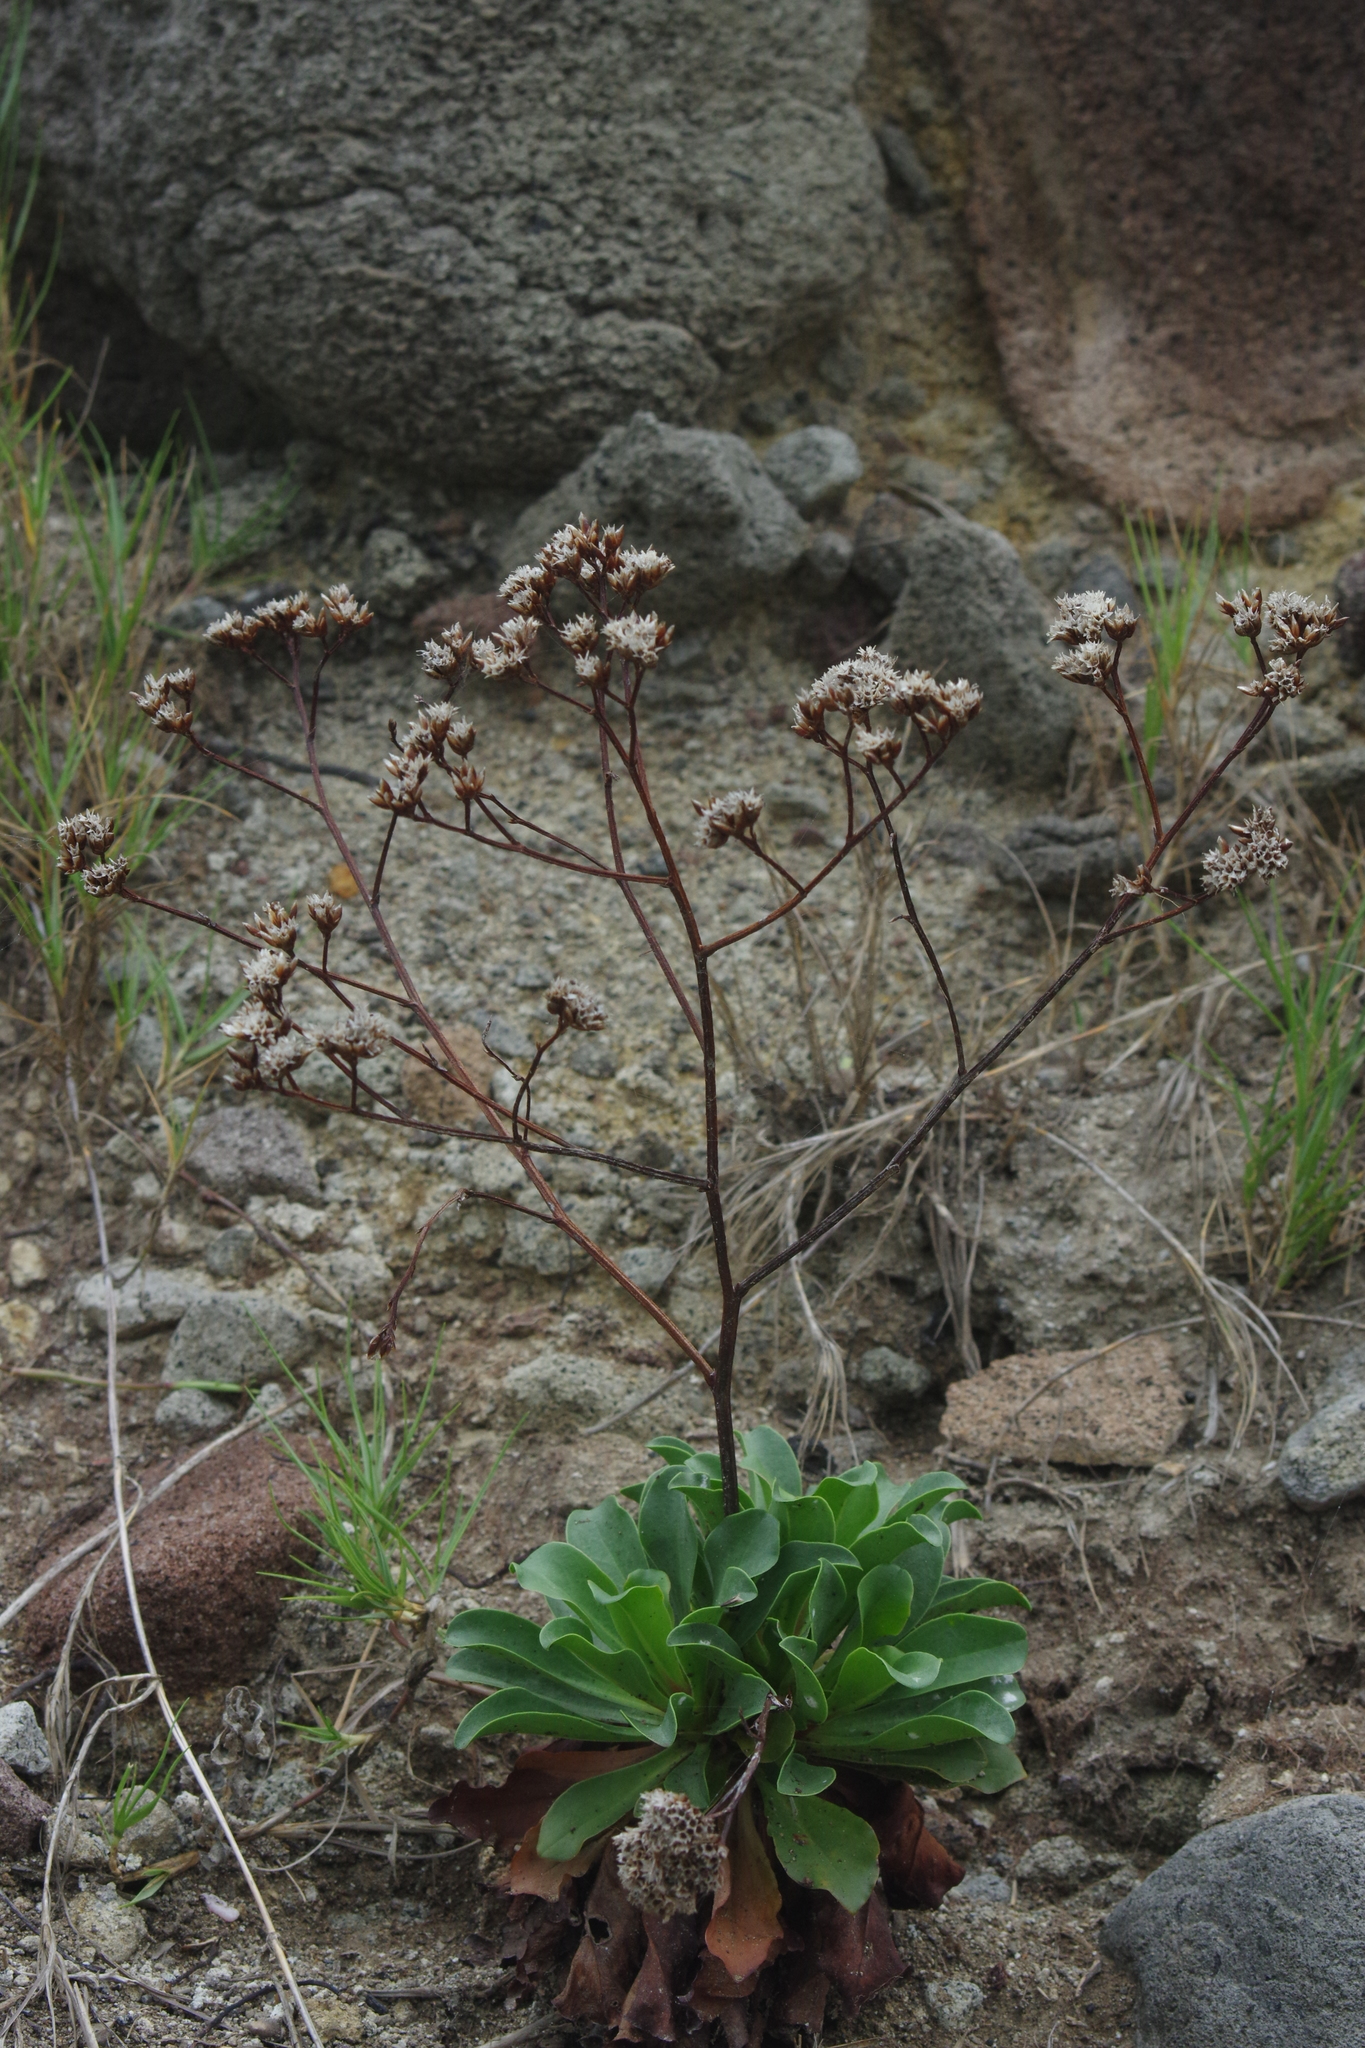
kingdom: Plantae
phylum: Tracheophyta
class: Magnoliopsida
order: Caryophyllales
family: Plumbaginaceae
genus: Limonium
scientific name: Limonium sinense
